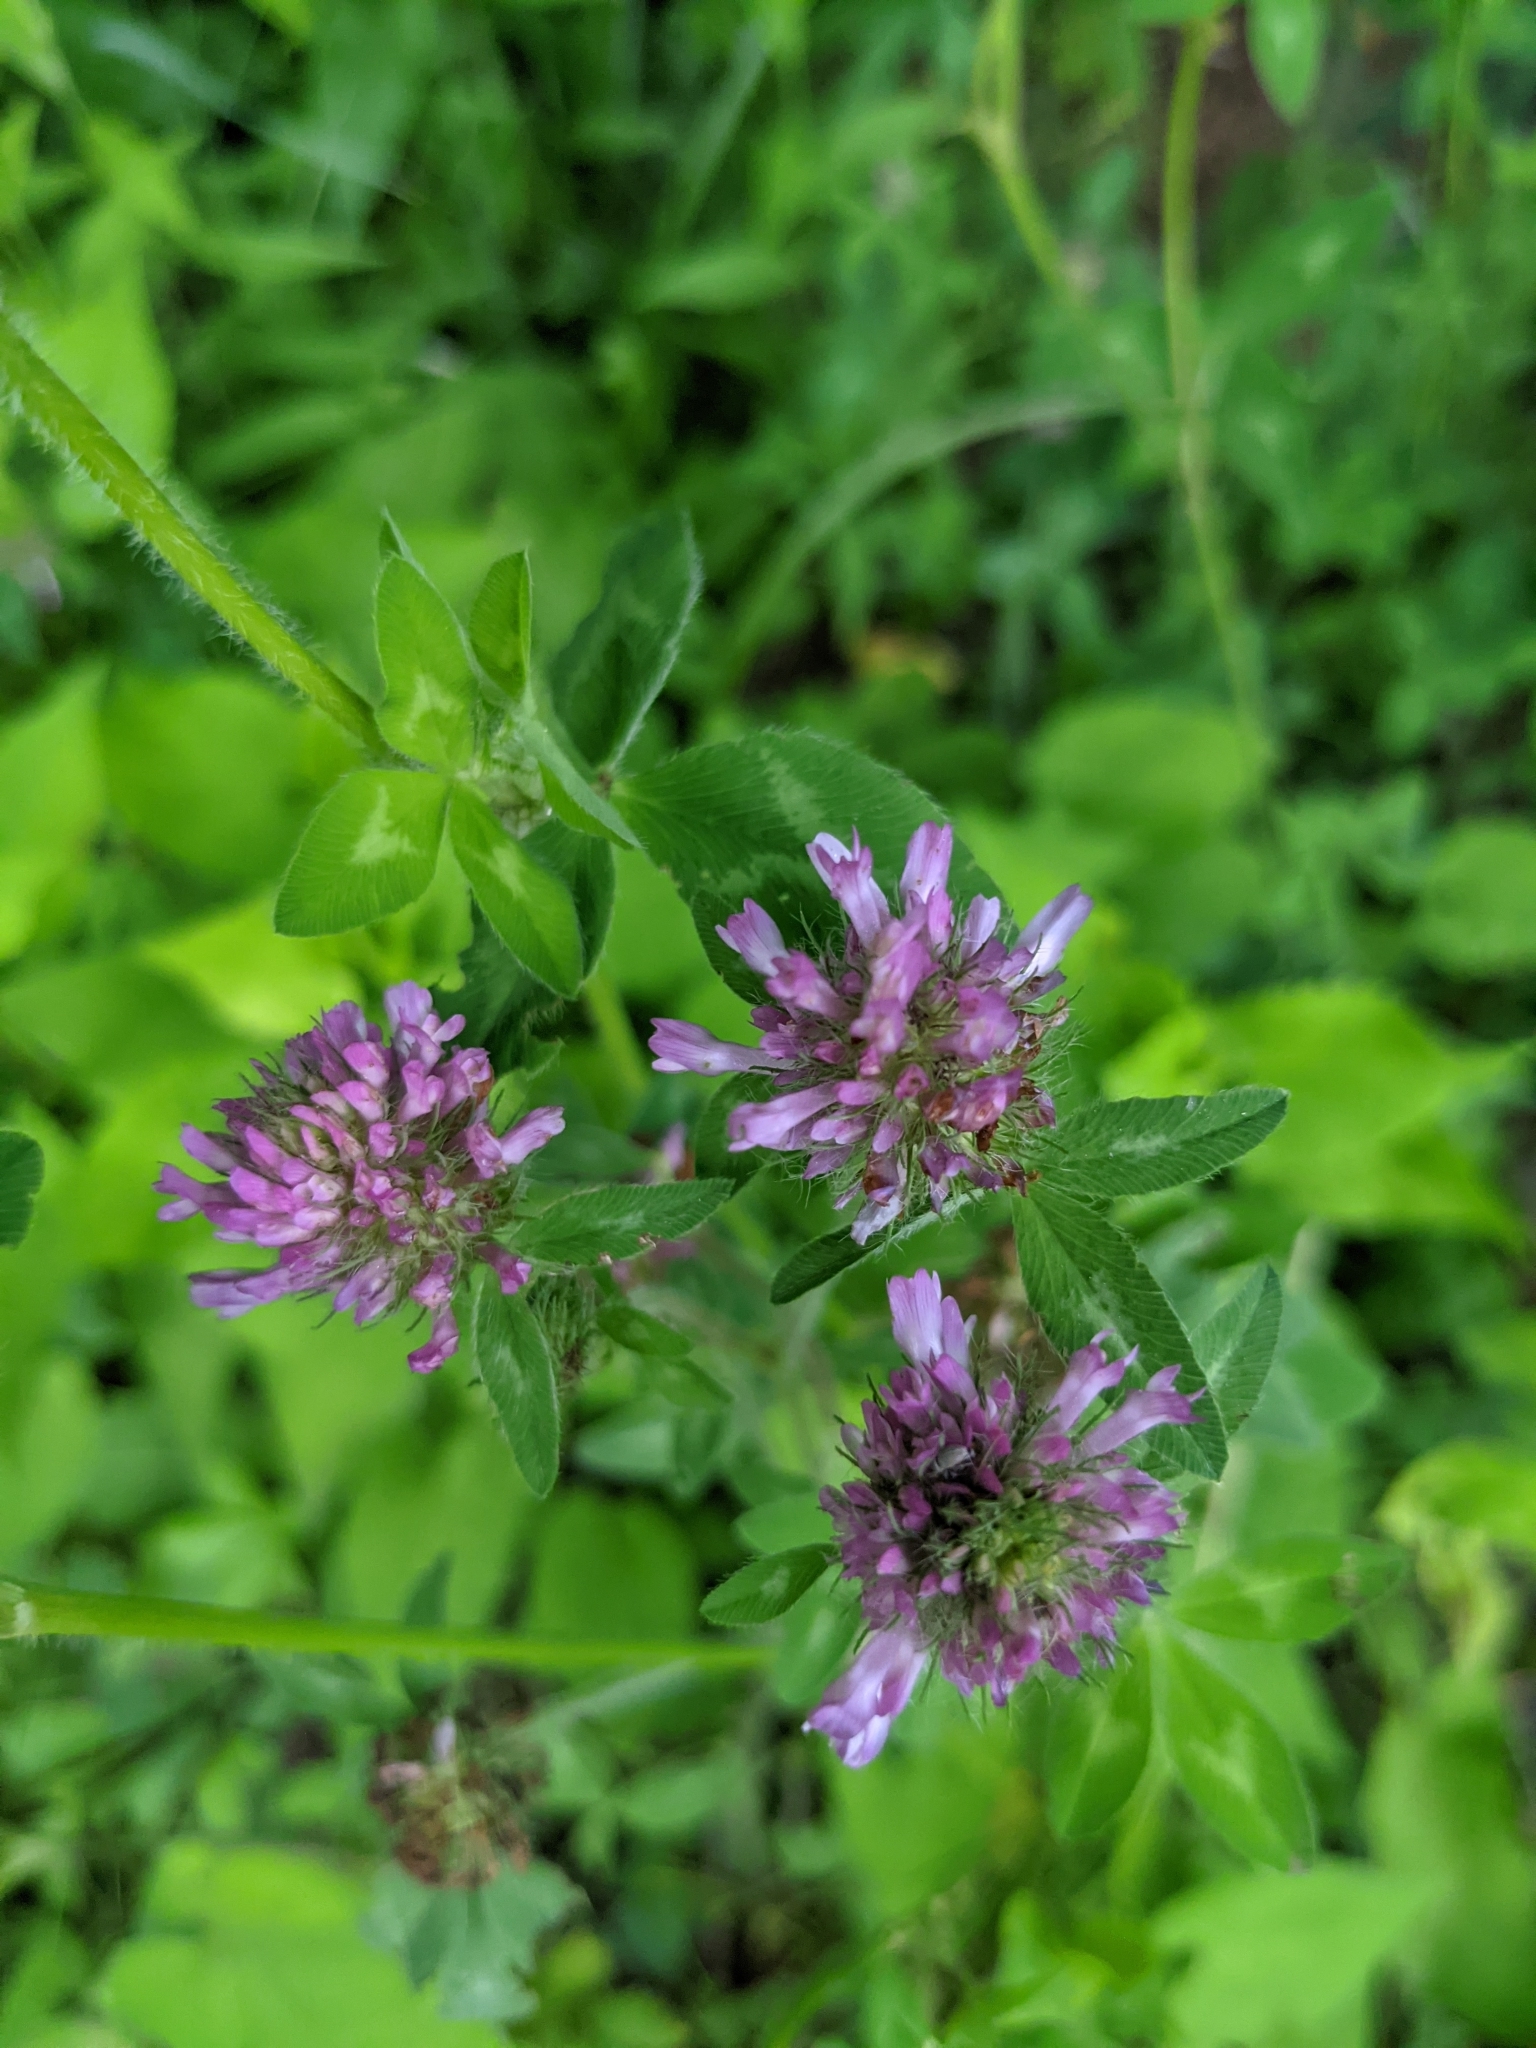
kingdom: Plantae
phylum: Tracheophyta
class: Magnoliopsida
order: Fabales
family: Fabaceae
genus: Trifolium
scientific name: Trifolium pratense
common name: Red clover
